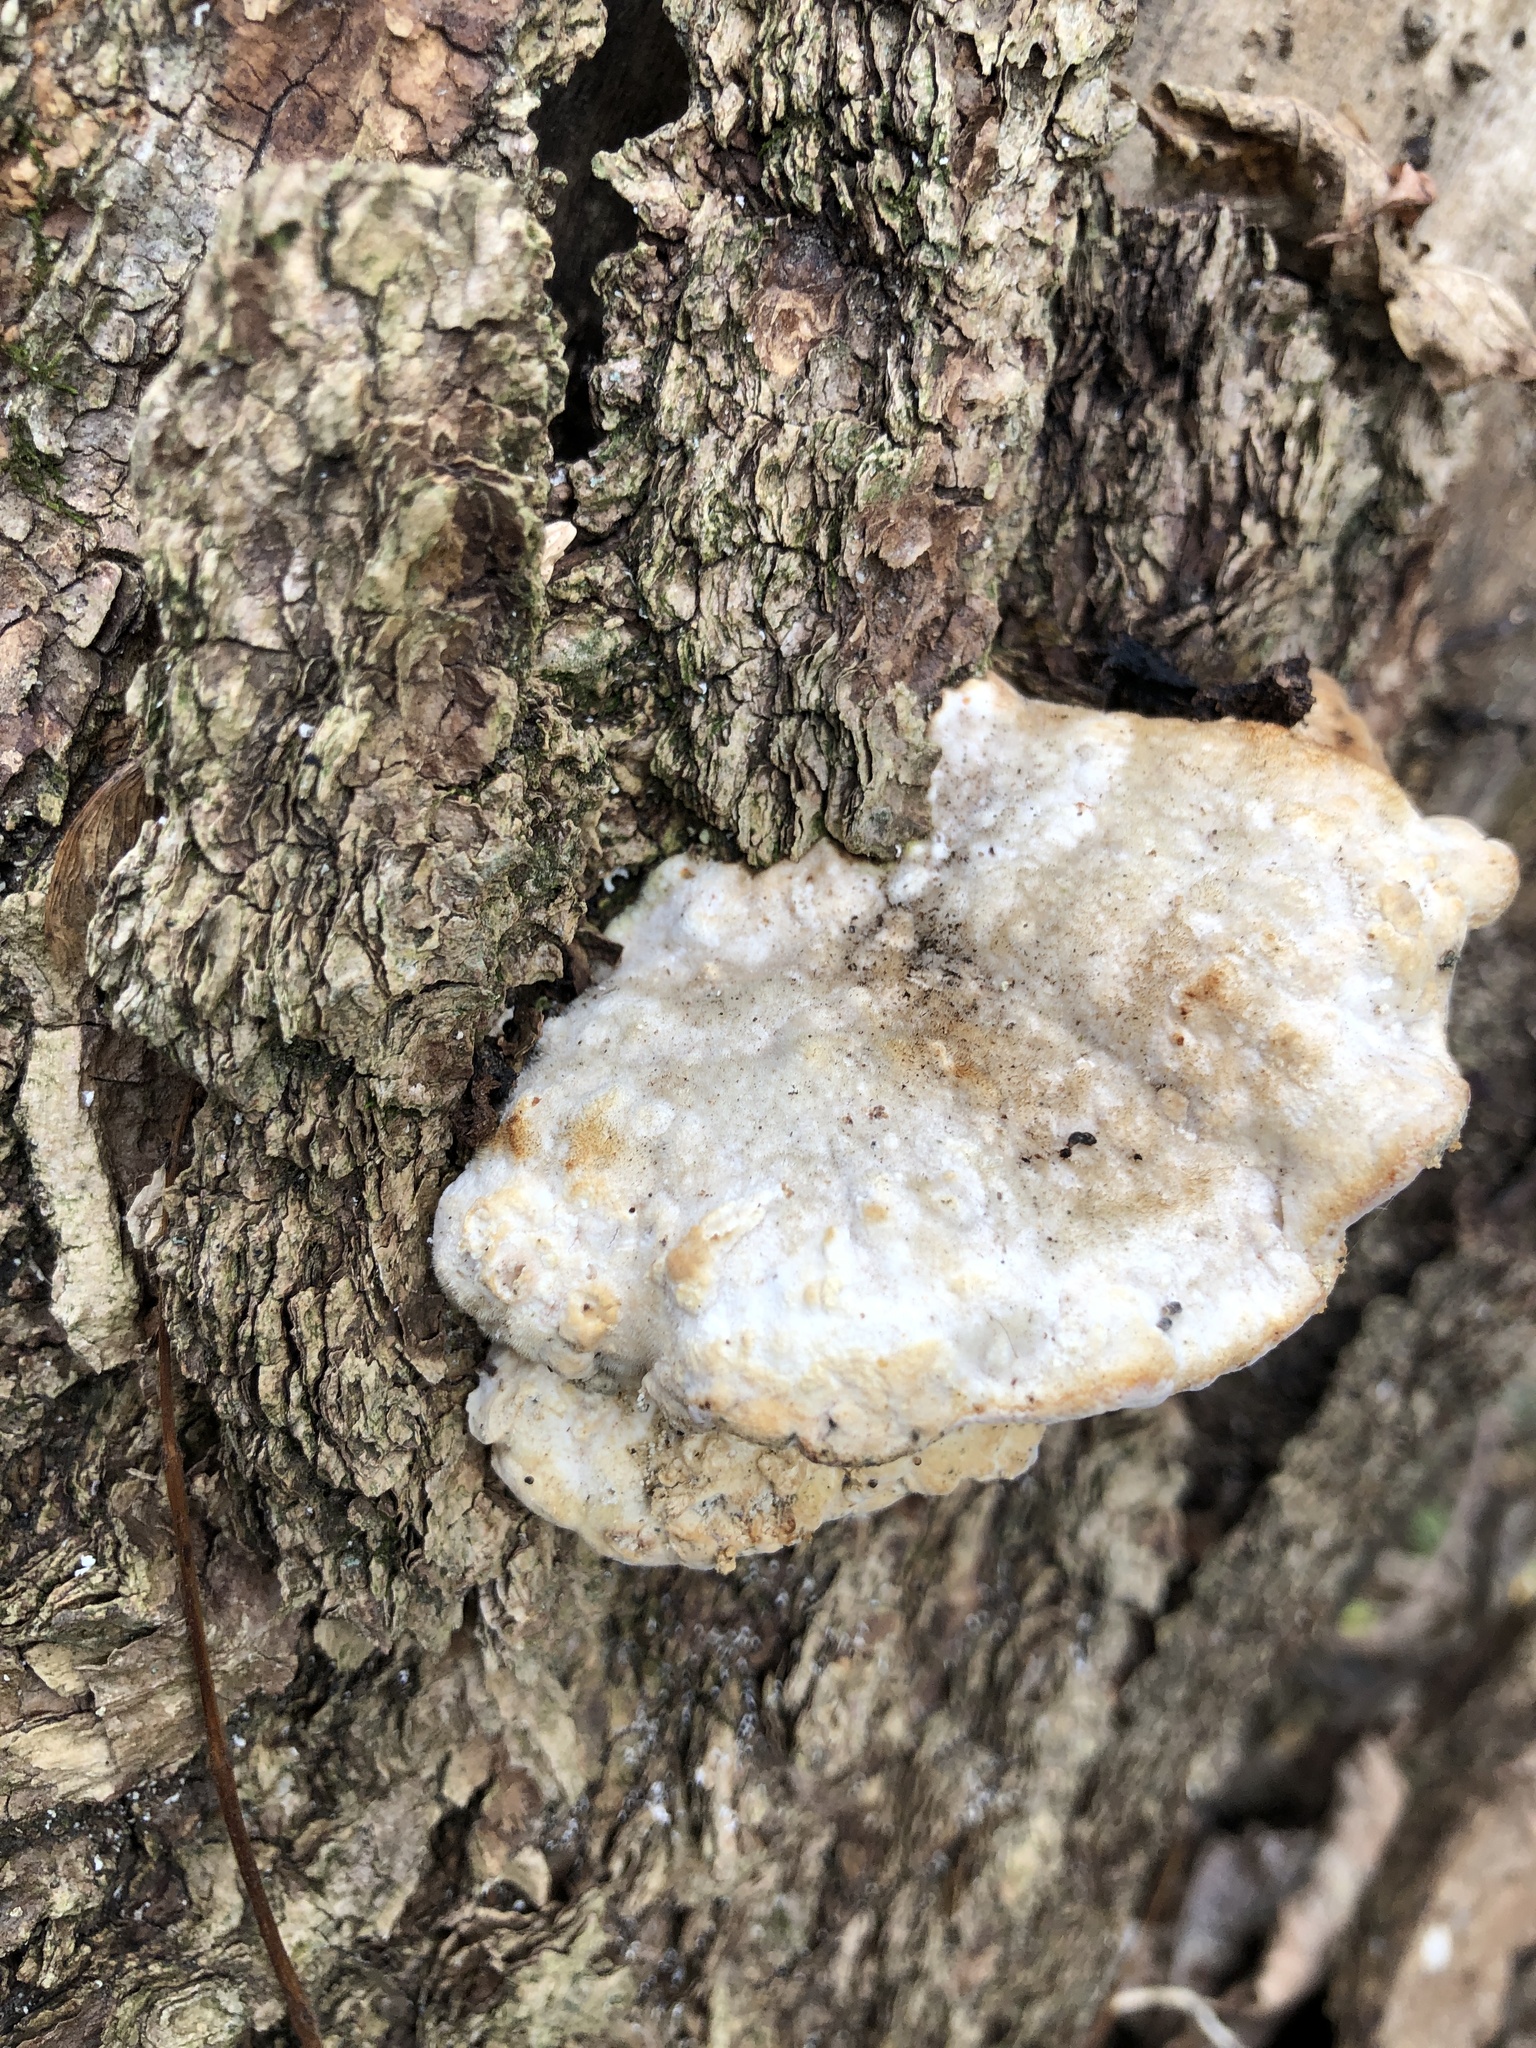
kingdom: Fungi
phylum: Basidiomycota
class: Agaricomycetes
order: Polyporales
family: Polyporaceae
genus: Trametes
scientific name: Trametes gibbosa
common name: Lumpy bracket
